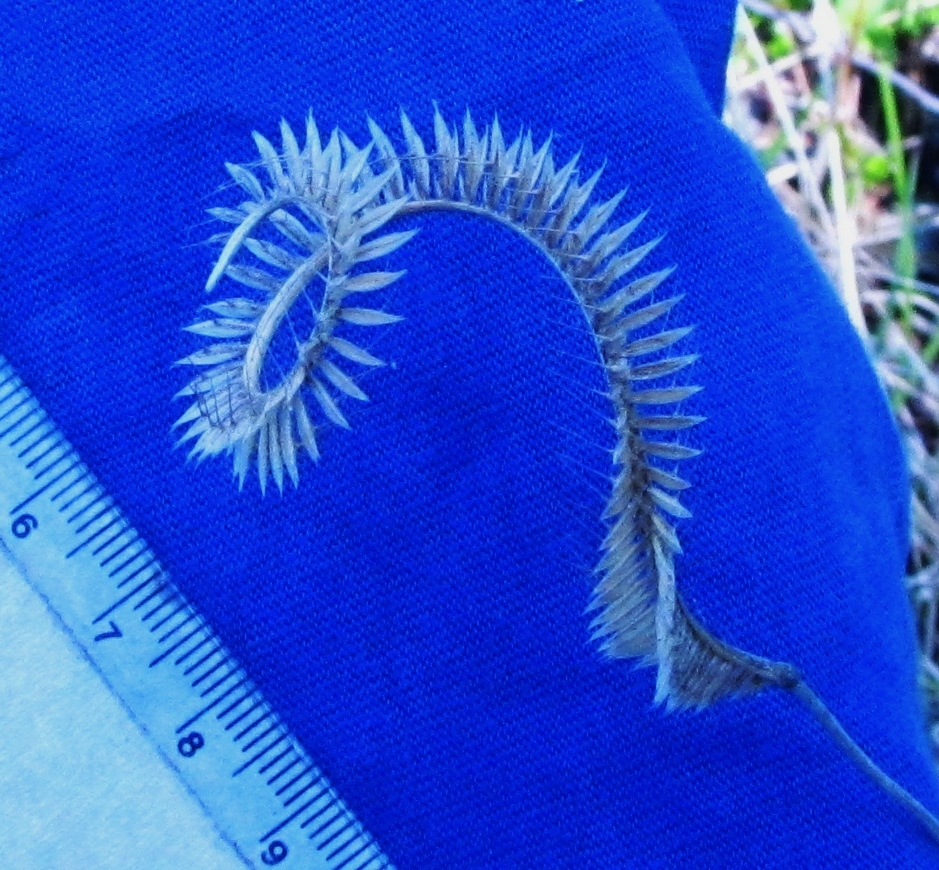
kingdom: Plantae
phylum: Tracheophyta
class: Liliopsida
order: Poales
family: Poaceae
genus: Ctenium
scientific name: Ctenium aromaticum
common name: Toothache grass
